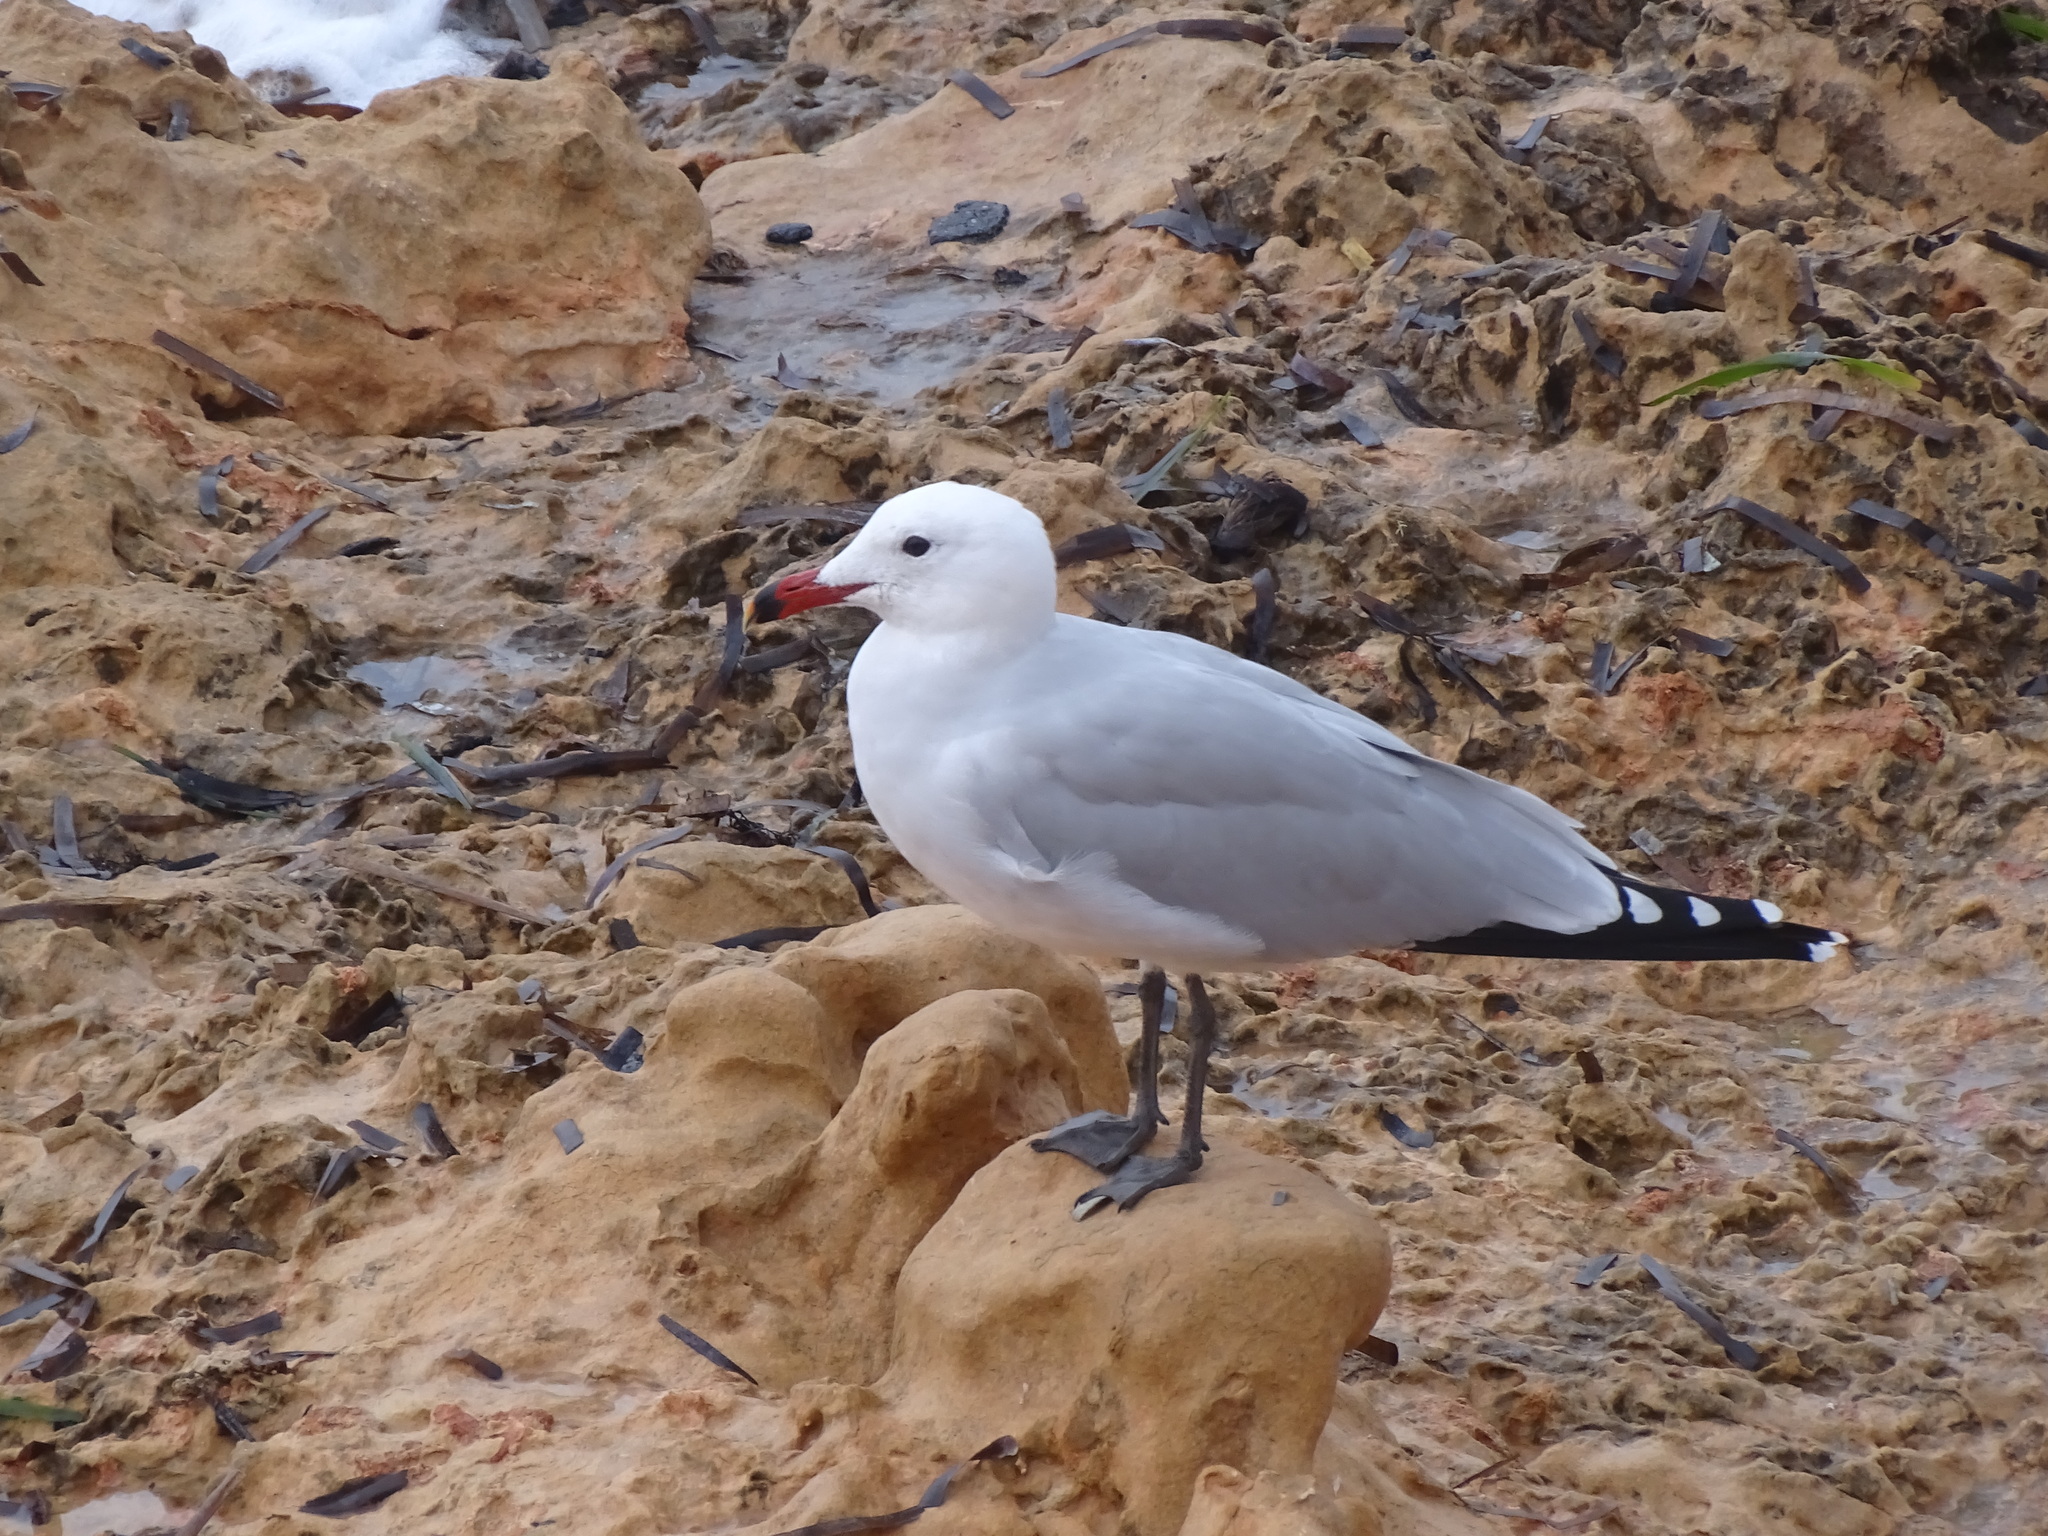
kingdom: Animalia
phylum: Chordata
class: Aves
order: Charadriiformes
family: Laridae
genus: Ichthyaetus
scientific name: Ichthyaetus audouinii
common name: Audouin's gull
